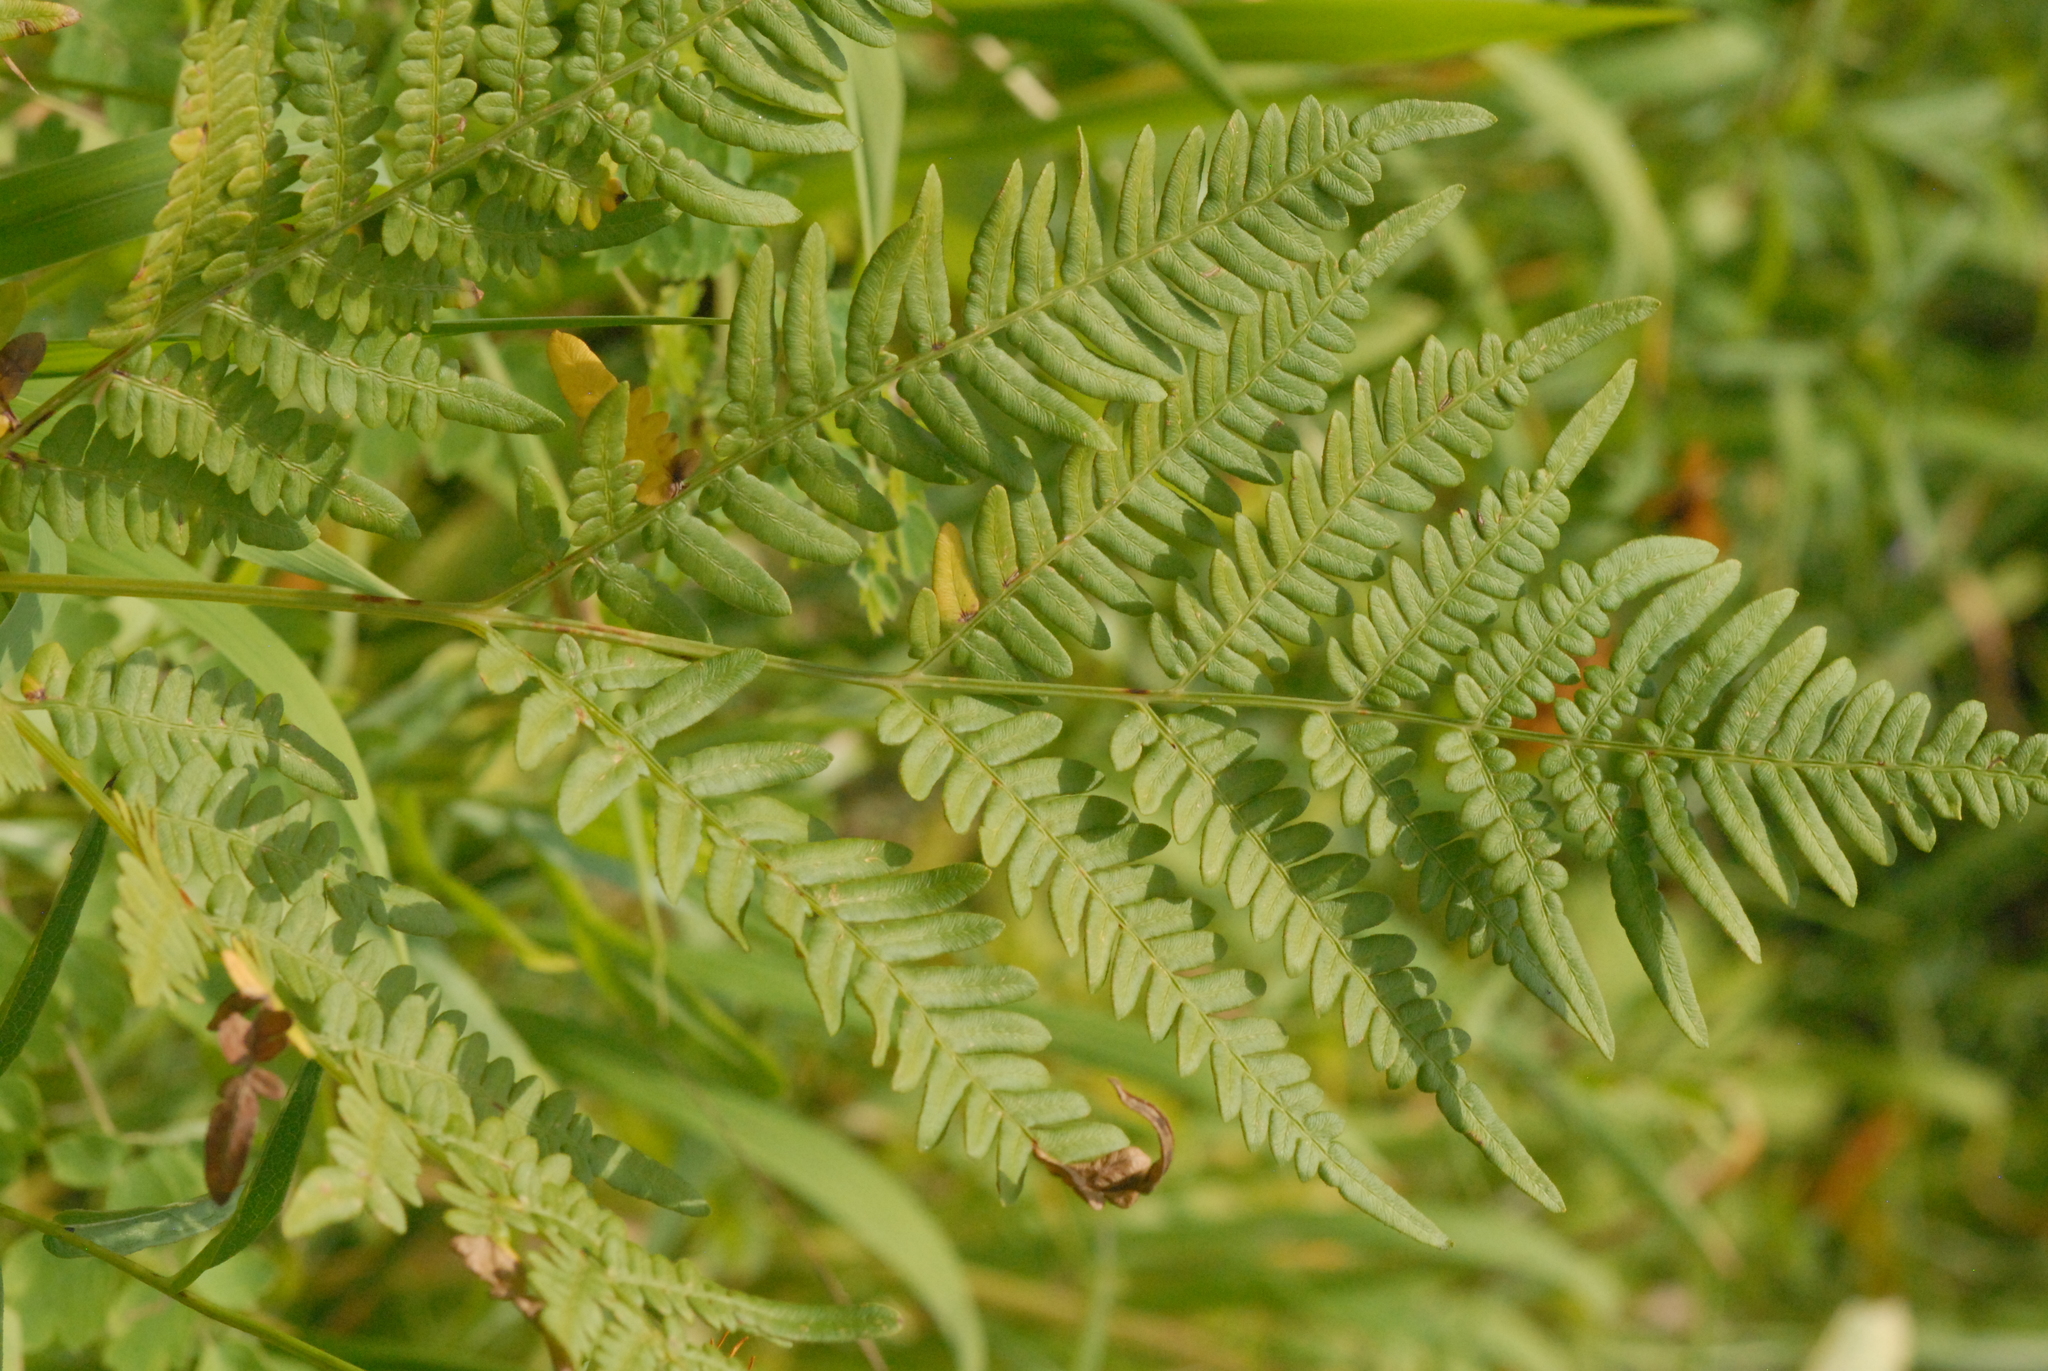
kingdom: Plantae
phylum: Tracheophyta
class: Polypodiopsida
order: Polypodiales
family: Dennstaedtiaceae
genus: Pteridium
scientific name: Pteridium aquilinum
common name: Bracken
